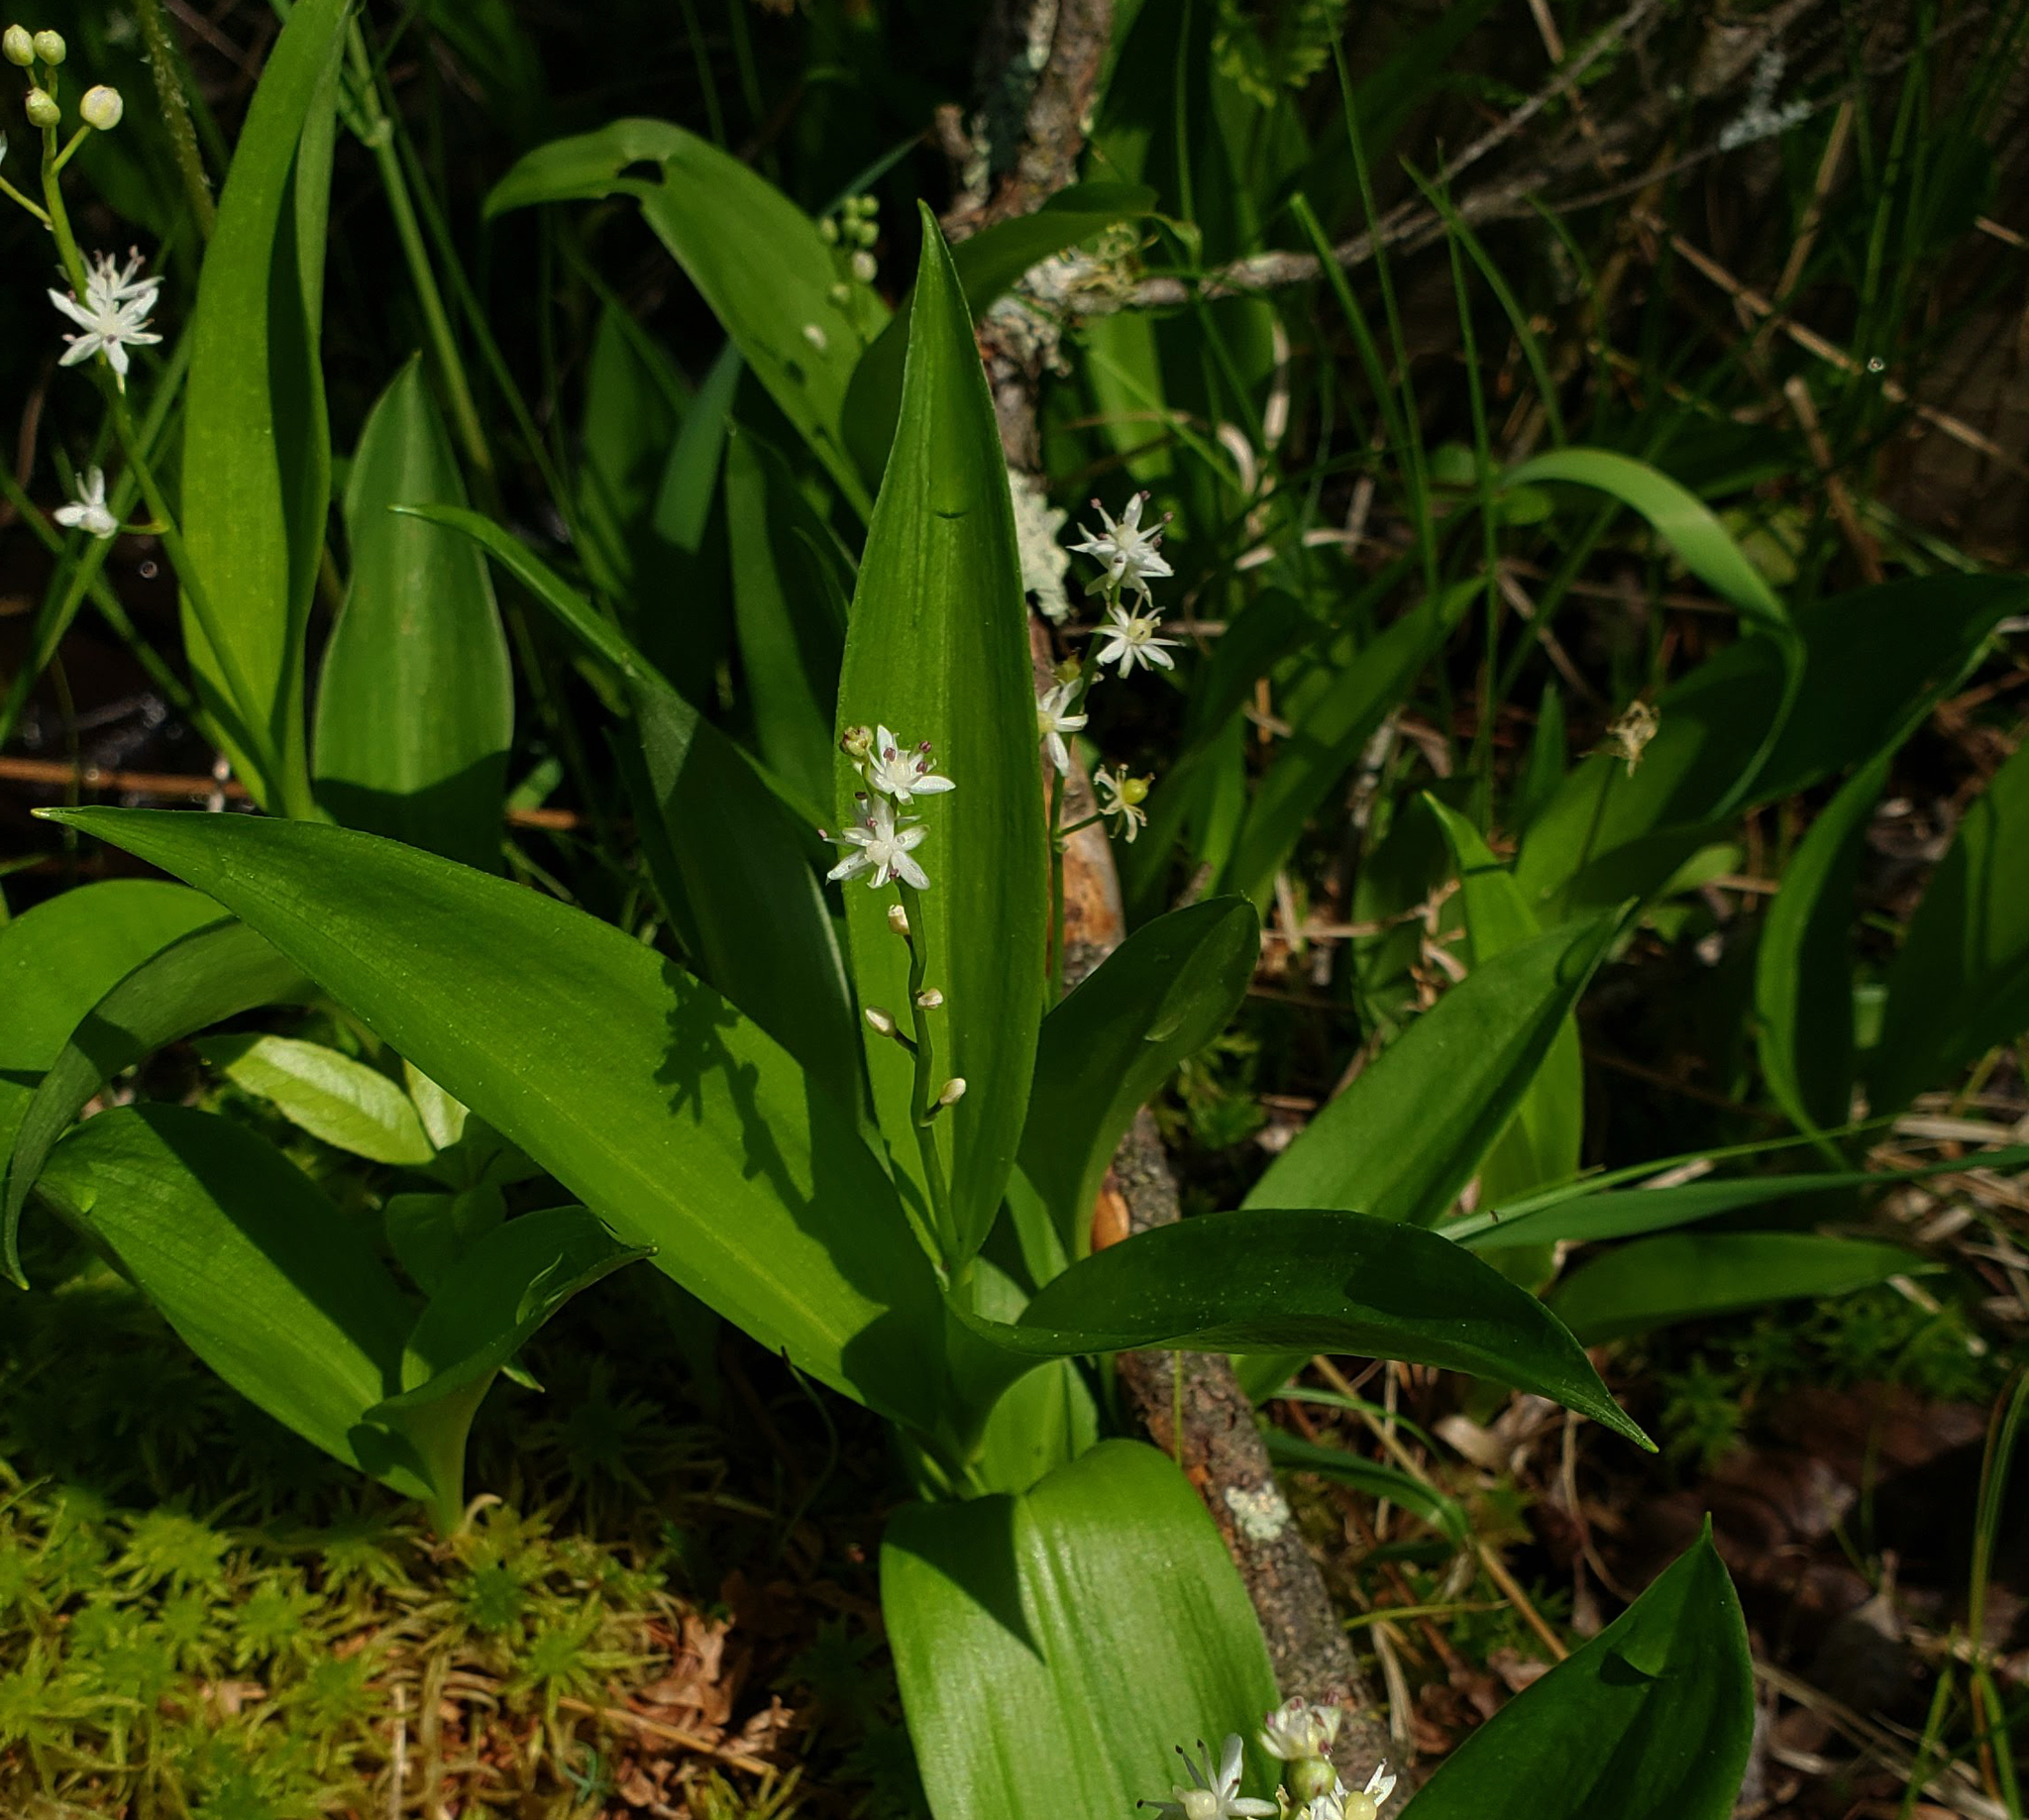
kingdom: Plantae
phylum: Tracheophyta
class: Liliopsida
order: Asparagales
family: Asparagaceae
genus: Maianthemum
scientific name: Maianthemum trifolium
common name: Swamp false solomon's seal
